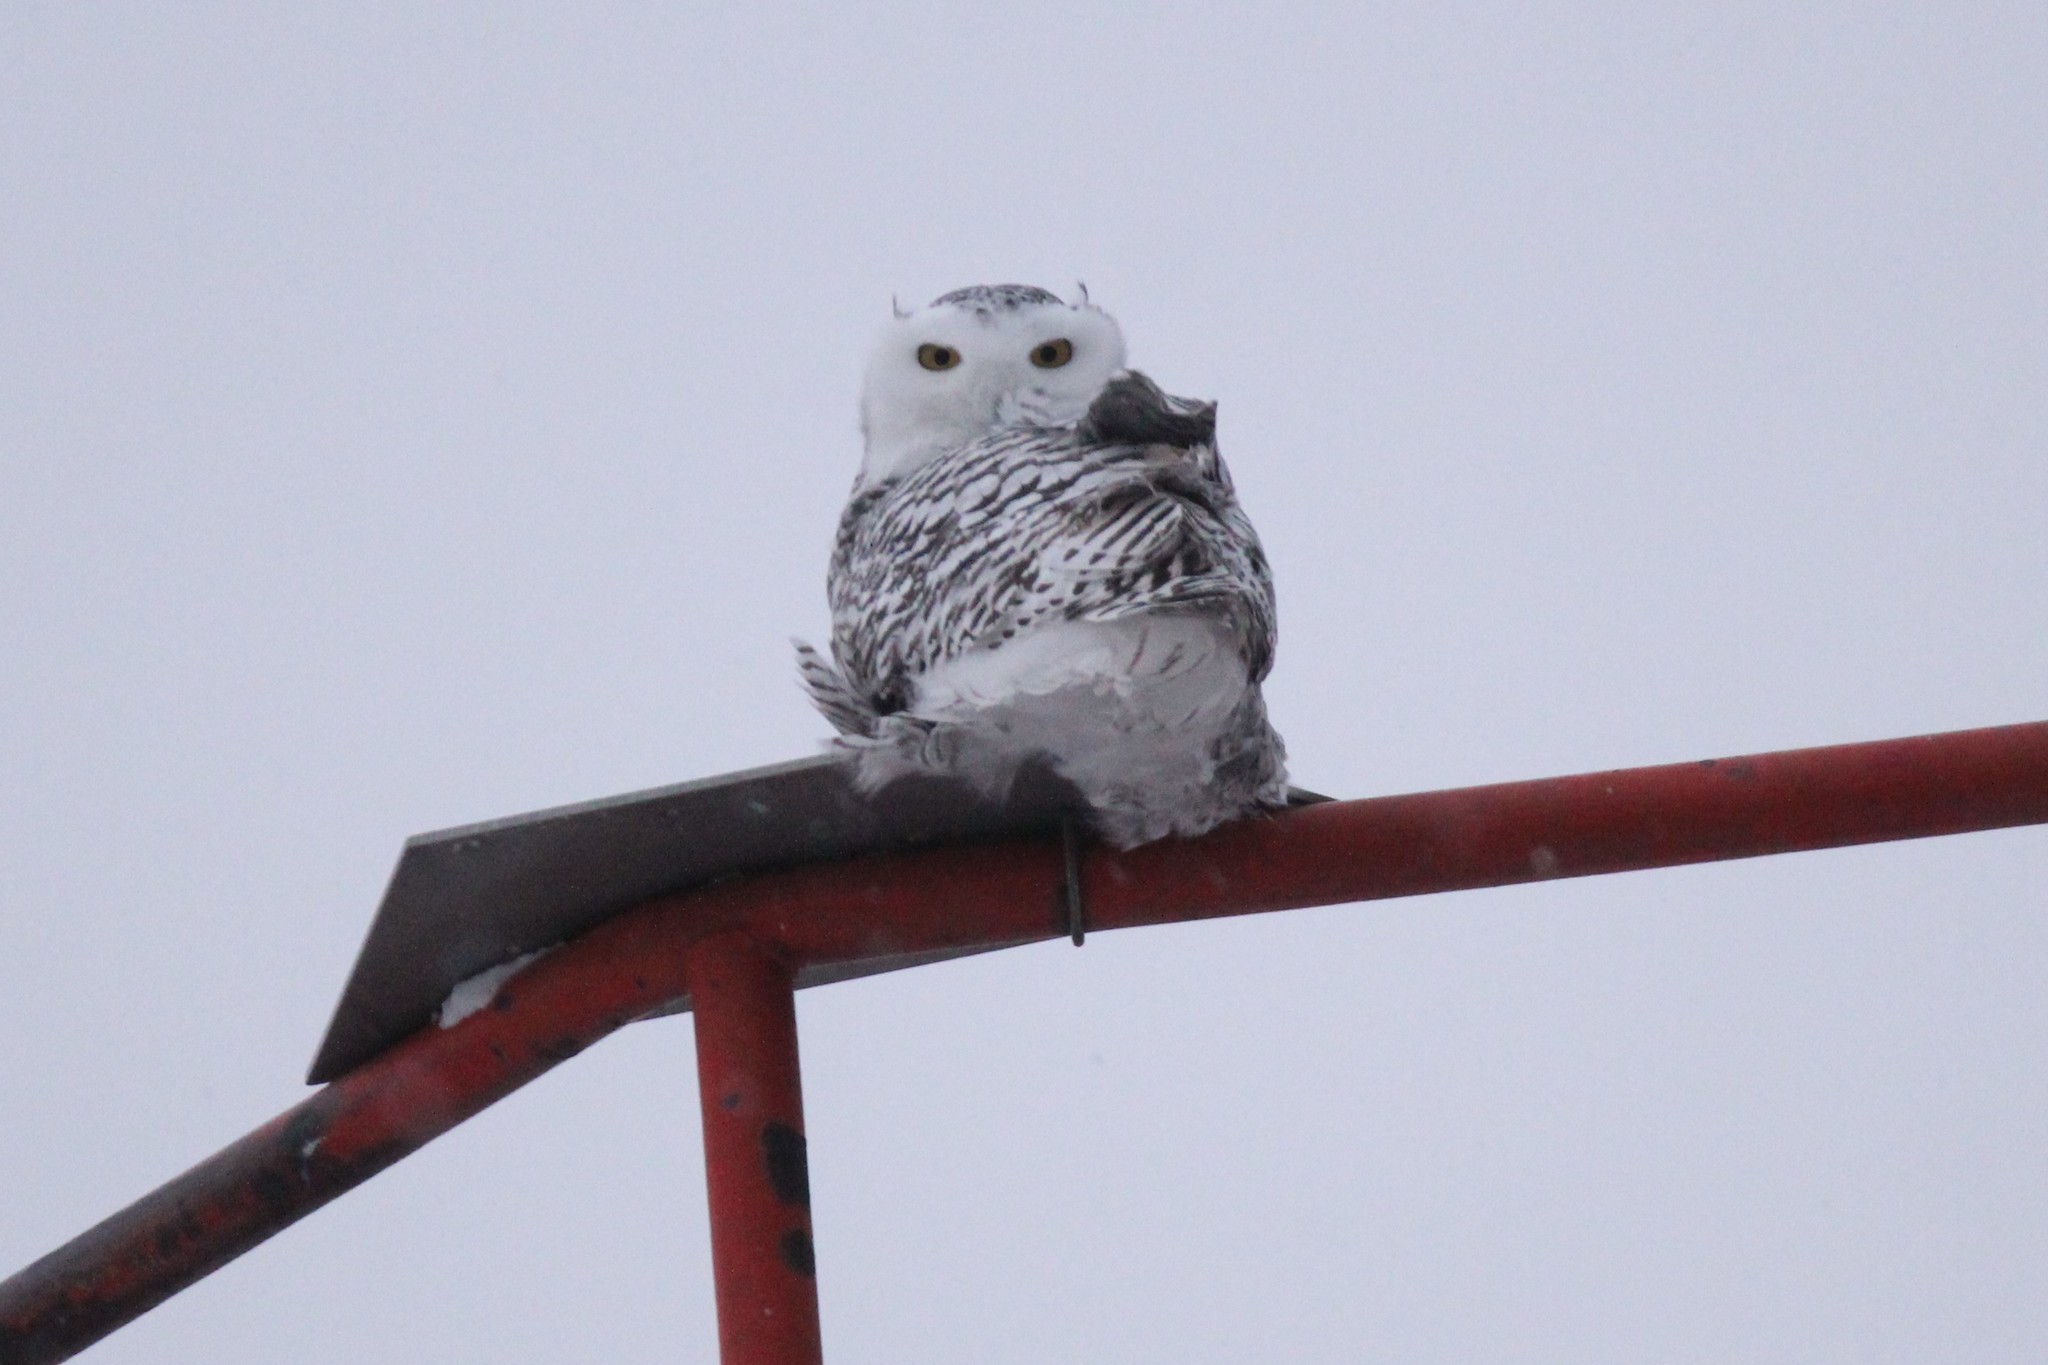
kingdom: Animalia
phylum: Chordata
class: Aves
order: Strigiformes
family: Strigidae
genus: Bubo
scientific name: Bubo scandiacus
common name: Snowy owl
